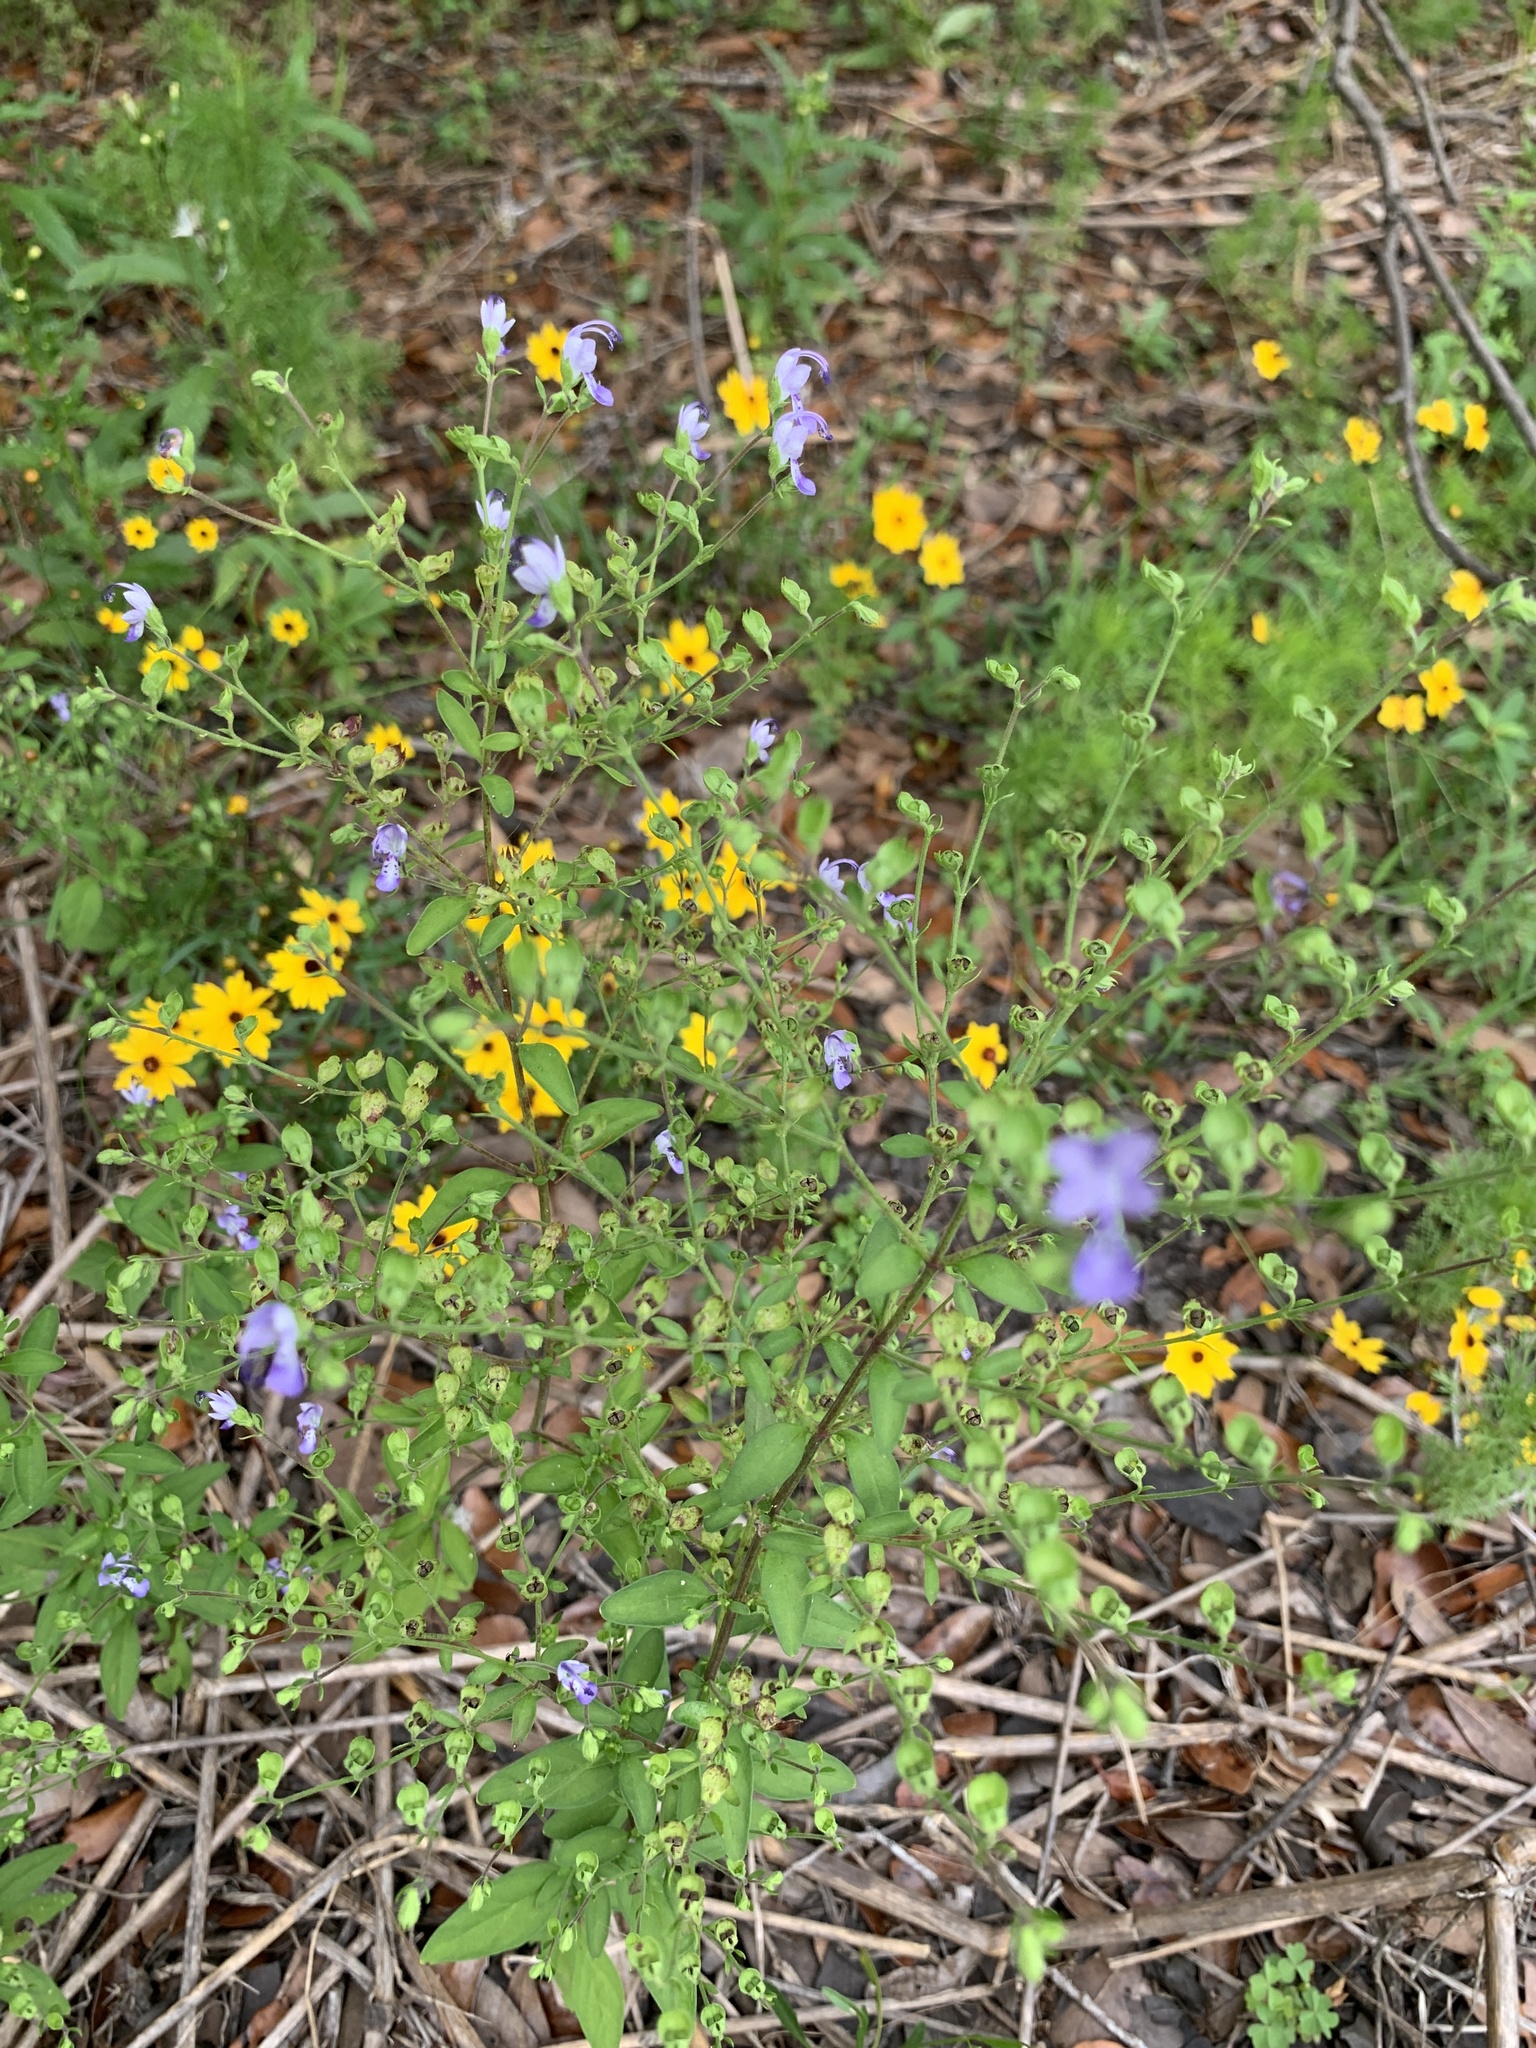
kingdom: Plantae
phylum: Tracheophyta
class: Magnoliopsida
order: Lamiales
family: Lamiaceae
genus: Trichostema
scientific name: Trichostema fruticosum
